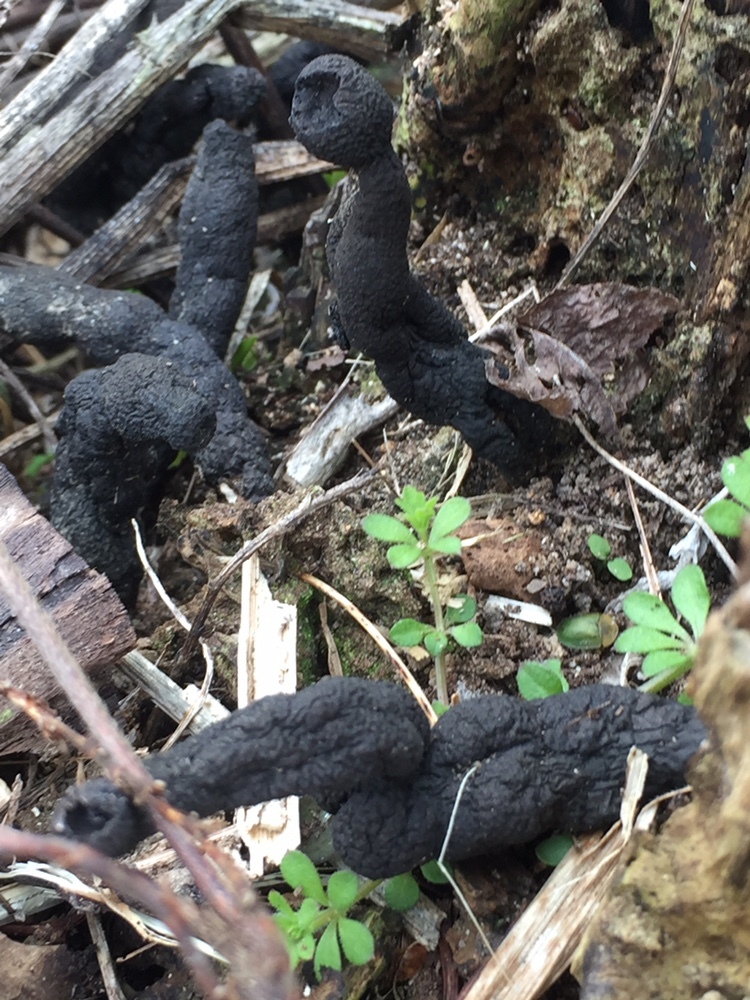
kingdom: Fungi
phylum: Ascomycota
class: Sordariomycetes
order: Xylariales
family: Xylariaceae
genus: Xylaria
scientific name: Xylaria polymorpha
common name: Dead man's fingers
